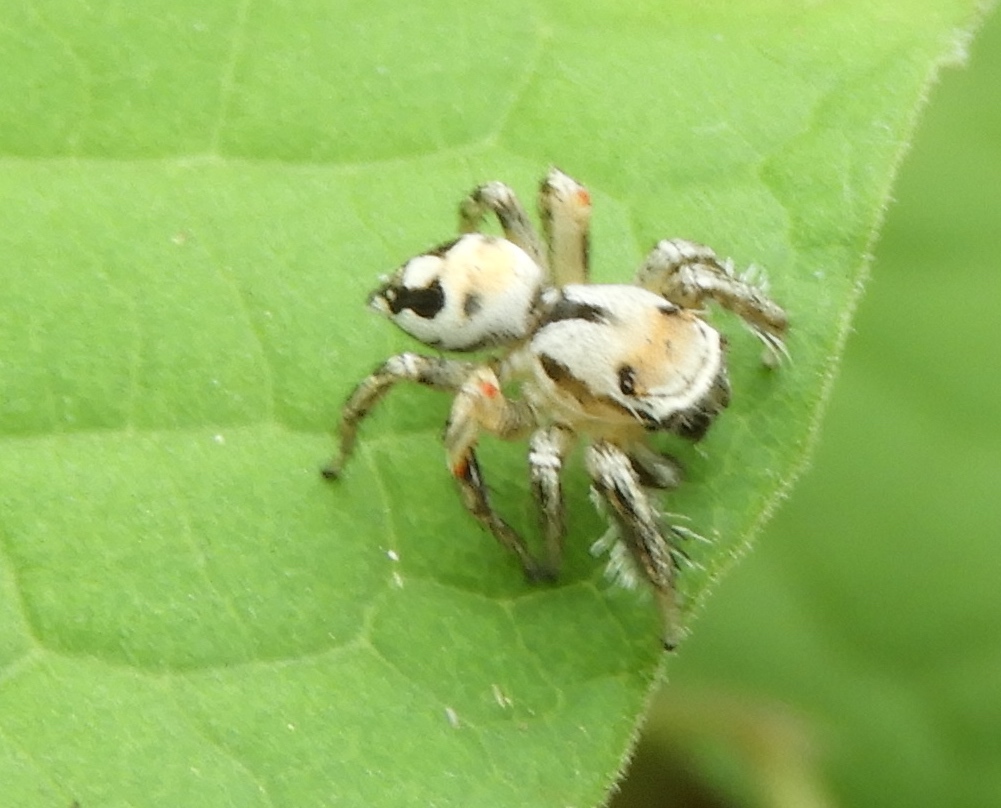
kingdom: Animalia
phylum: Arthropoda
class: Arachnida
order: Araneae
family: Salticidae
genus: Habronattus
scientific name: Habronattus aztecanus
